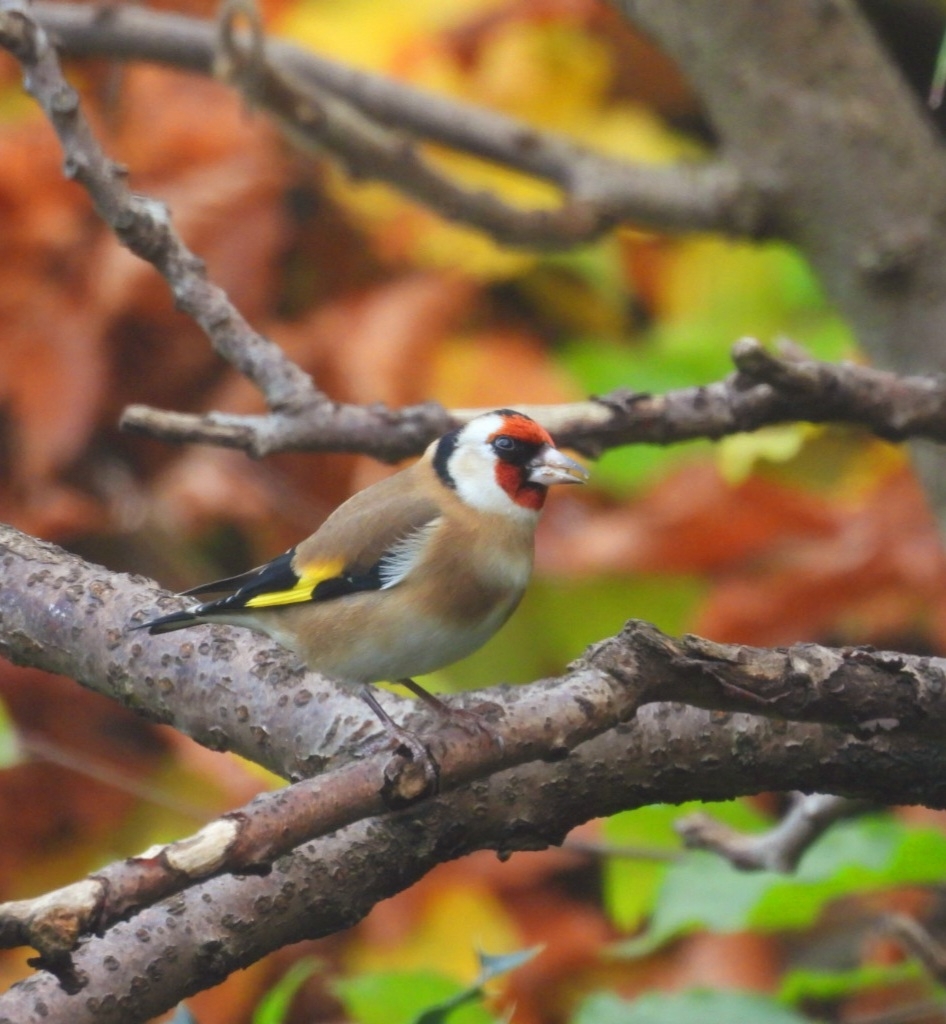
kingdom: Animalia
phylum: Chordata
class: Aves
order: Passeriformes
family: Fringillidae
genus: Carduelis
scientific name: Carduelis carduelis
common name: European goldfinch
